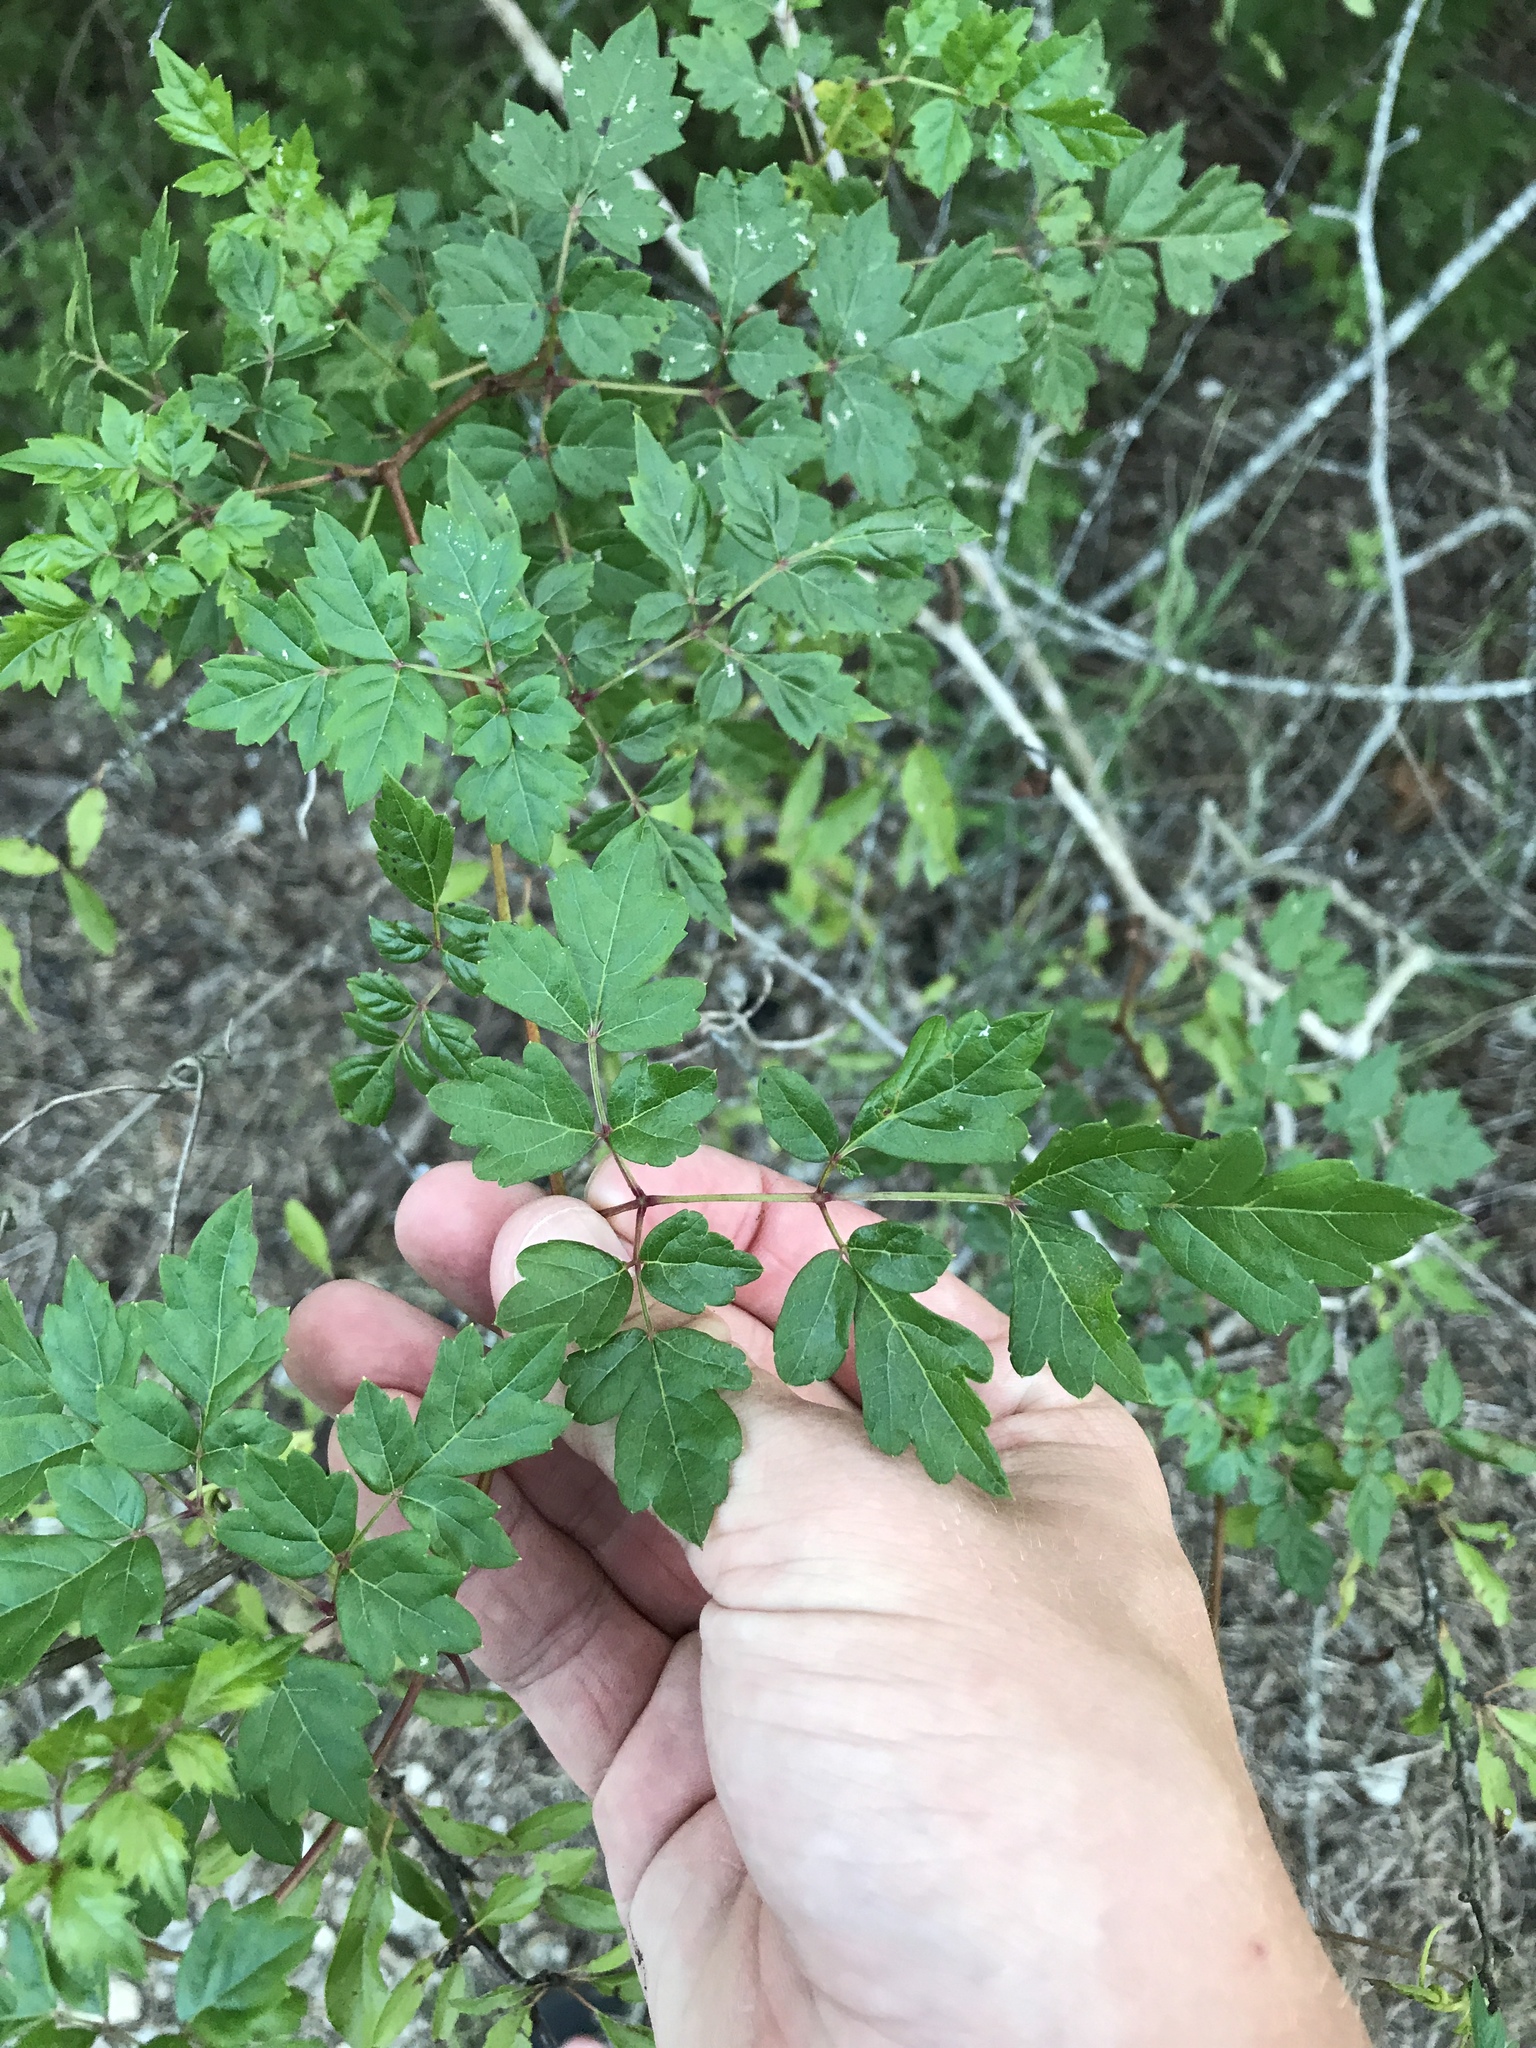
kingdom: Plantae
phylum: Tracheophyta
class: Magnoliopsida
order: Vitales
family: Vitaceae
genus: Nekemias
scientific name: Nekemias arborea
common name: Peppervine
